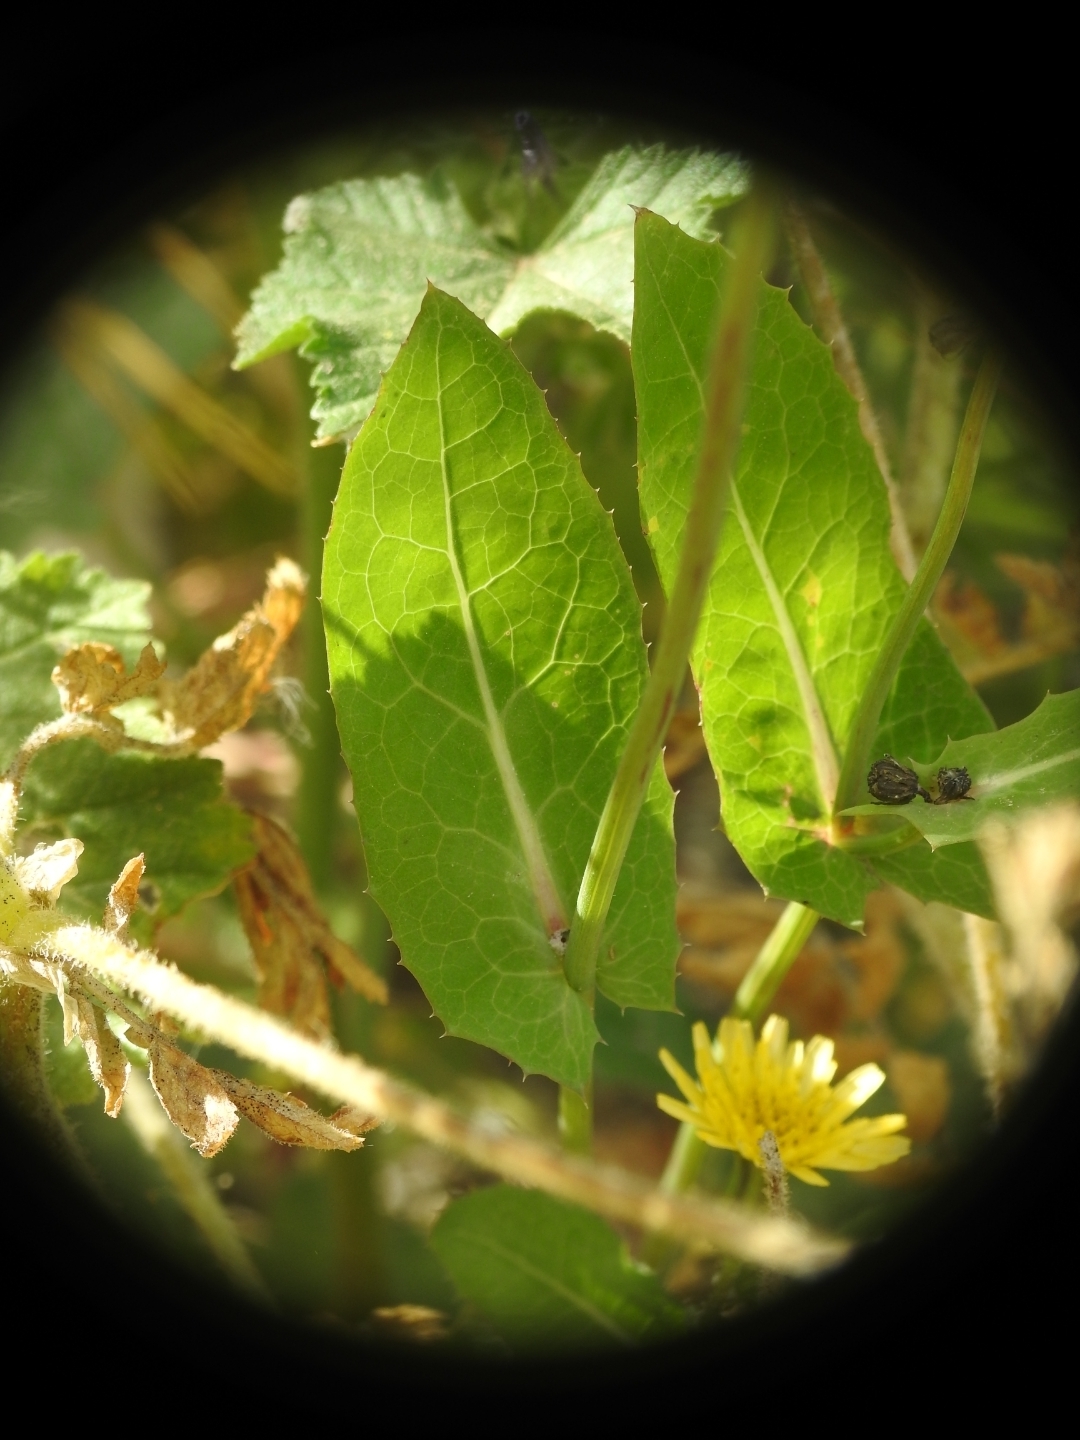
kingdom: Plantae
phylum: Tracheophyta
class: Magnoliopsida
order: Asterales
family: Asteraceae
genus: Sonchus
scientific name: Sonchus oleraceus
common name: Common sowthistle
